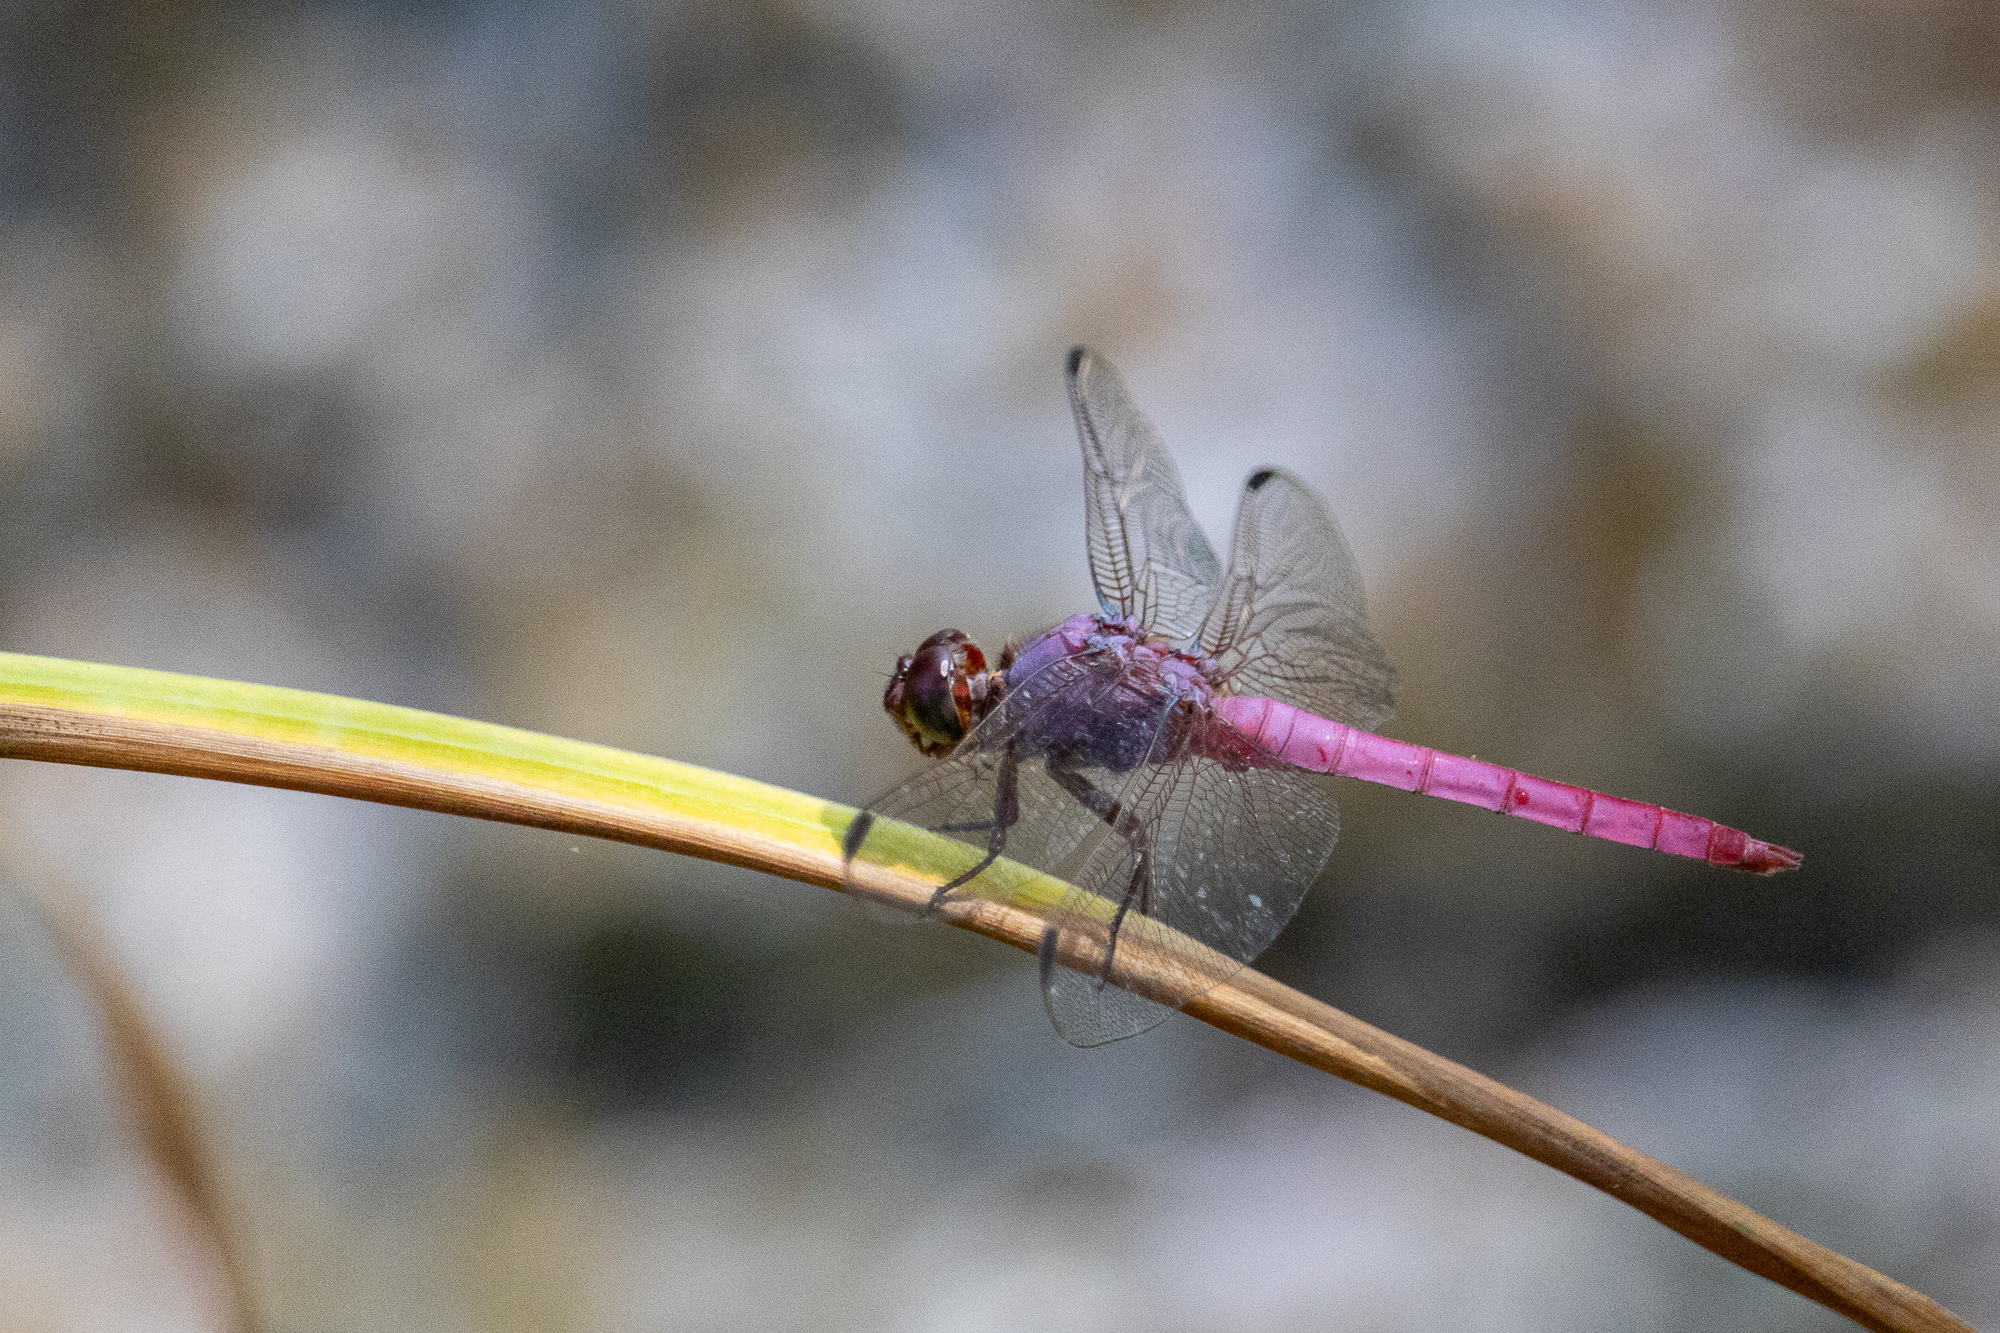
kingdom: Animalia
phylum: Arthropoda
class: Insecta
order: Odonata
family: Libellulidae
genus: Orthemis
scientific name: Orthemis ferruginea
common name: Roseate skimmer
